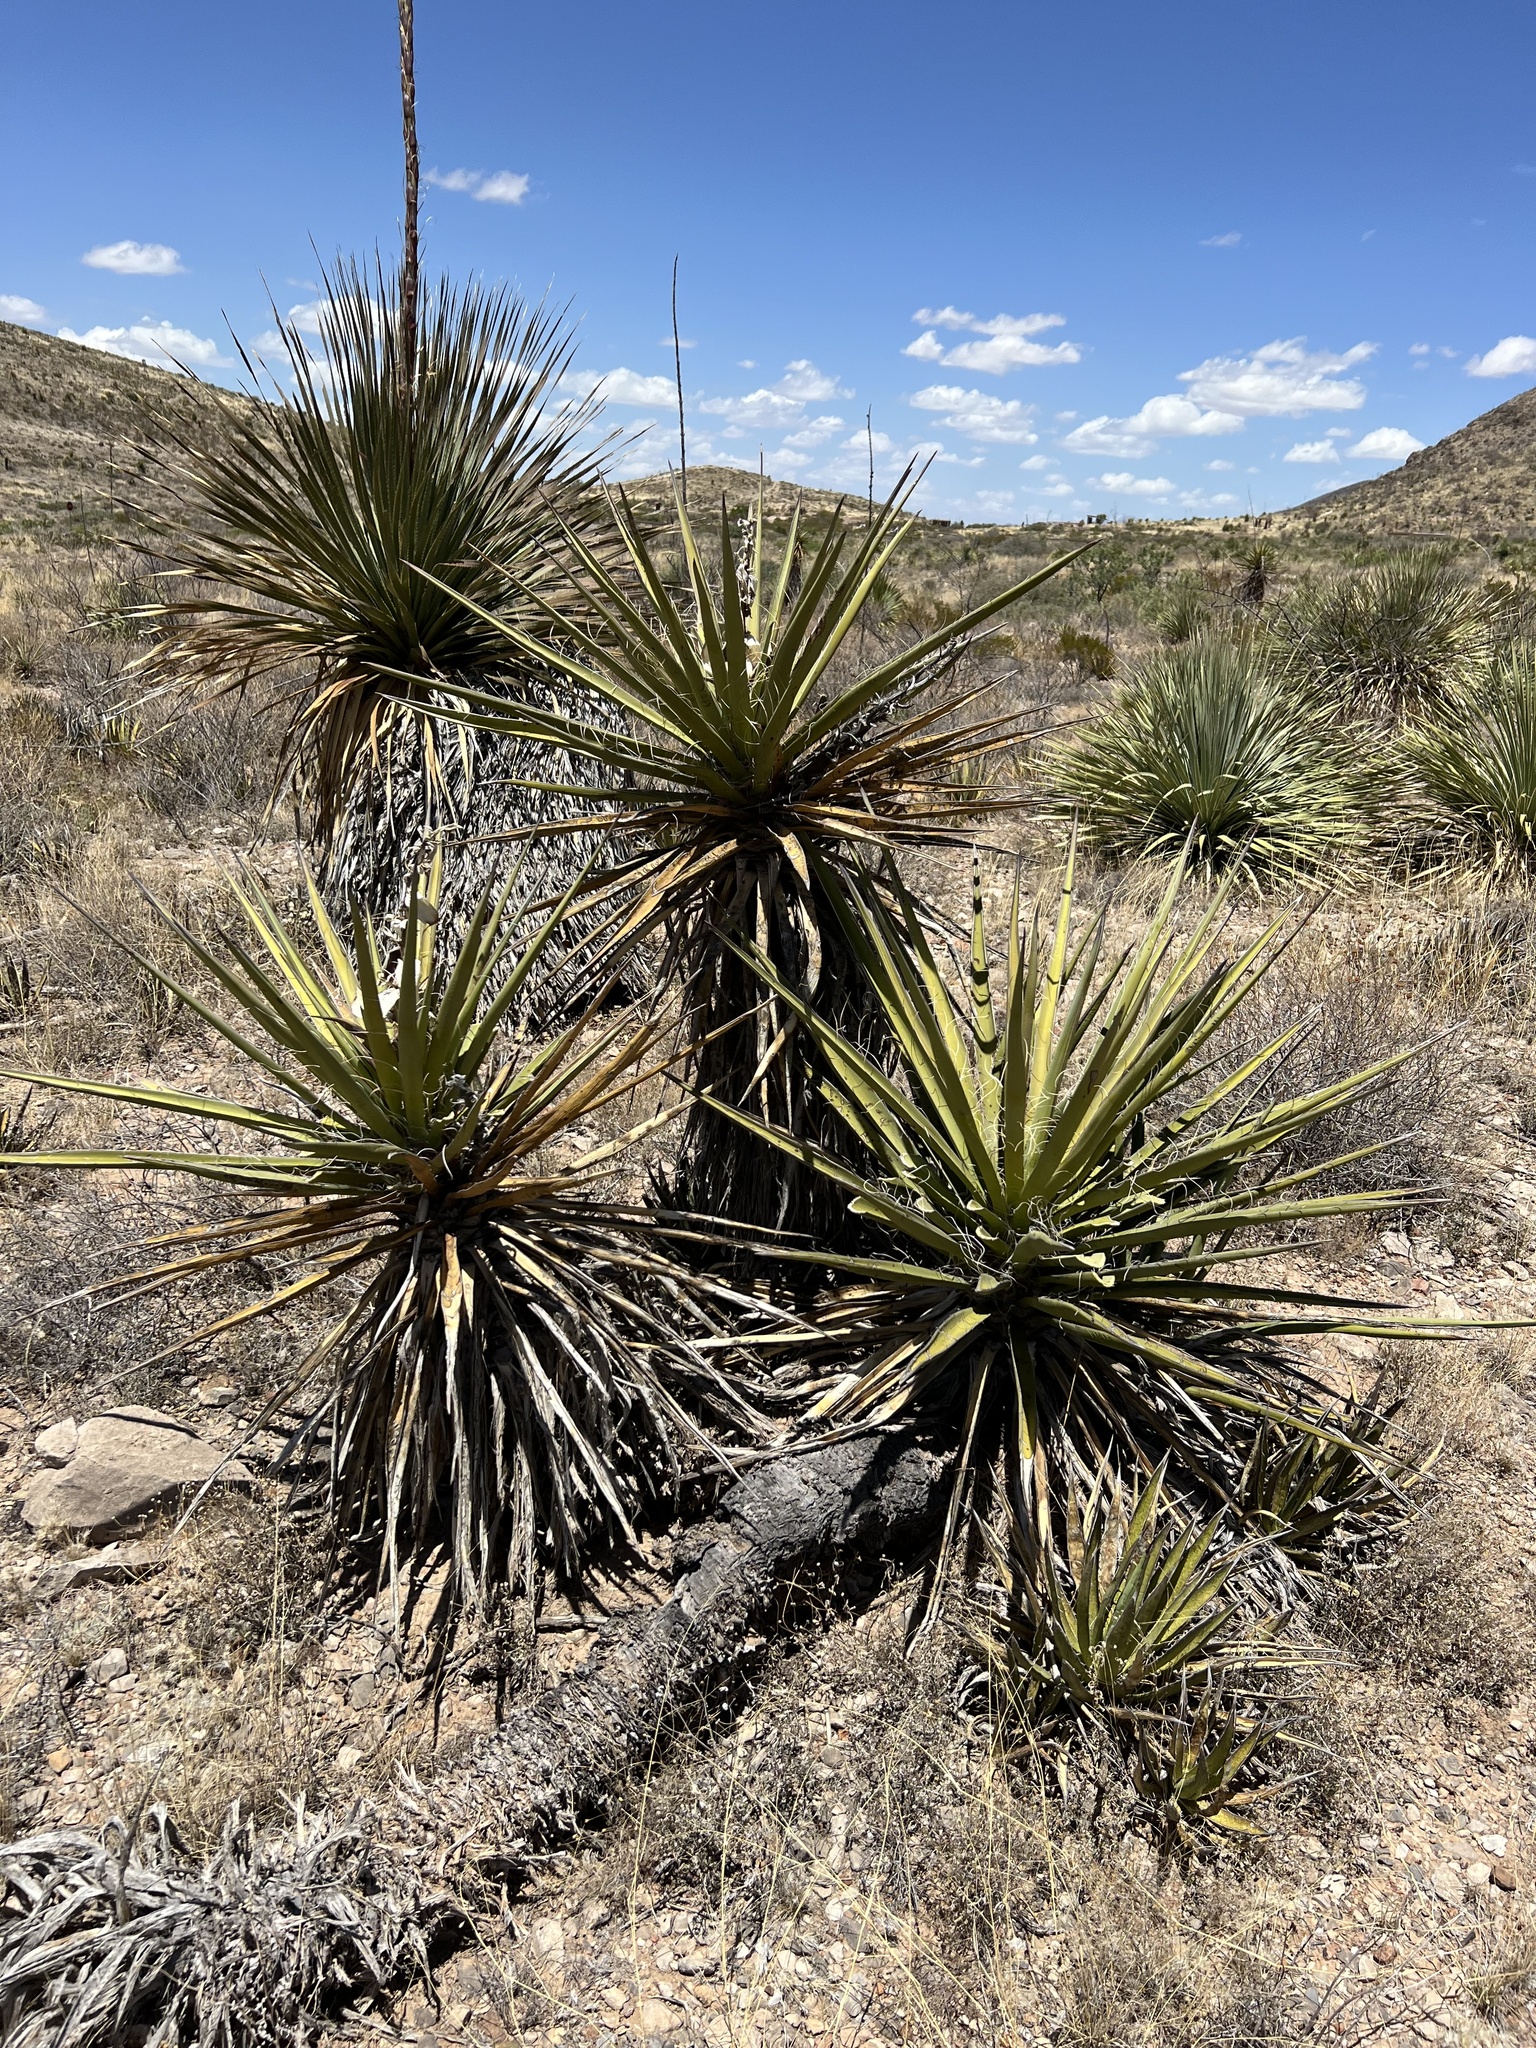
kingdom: Plantae
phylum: Tracheophyta
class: Liliopsida
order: Asparagales
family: Asparagaceae
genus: Yucca
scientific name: Yucca treculiana
